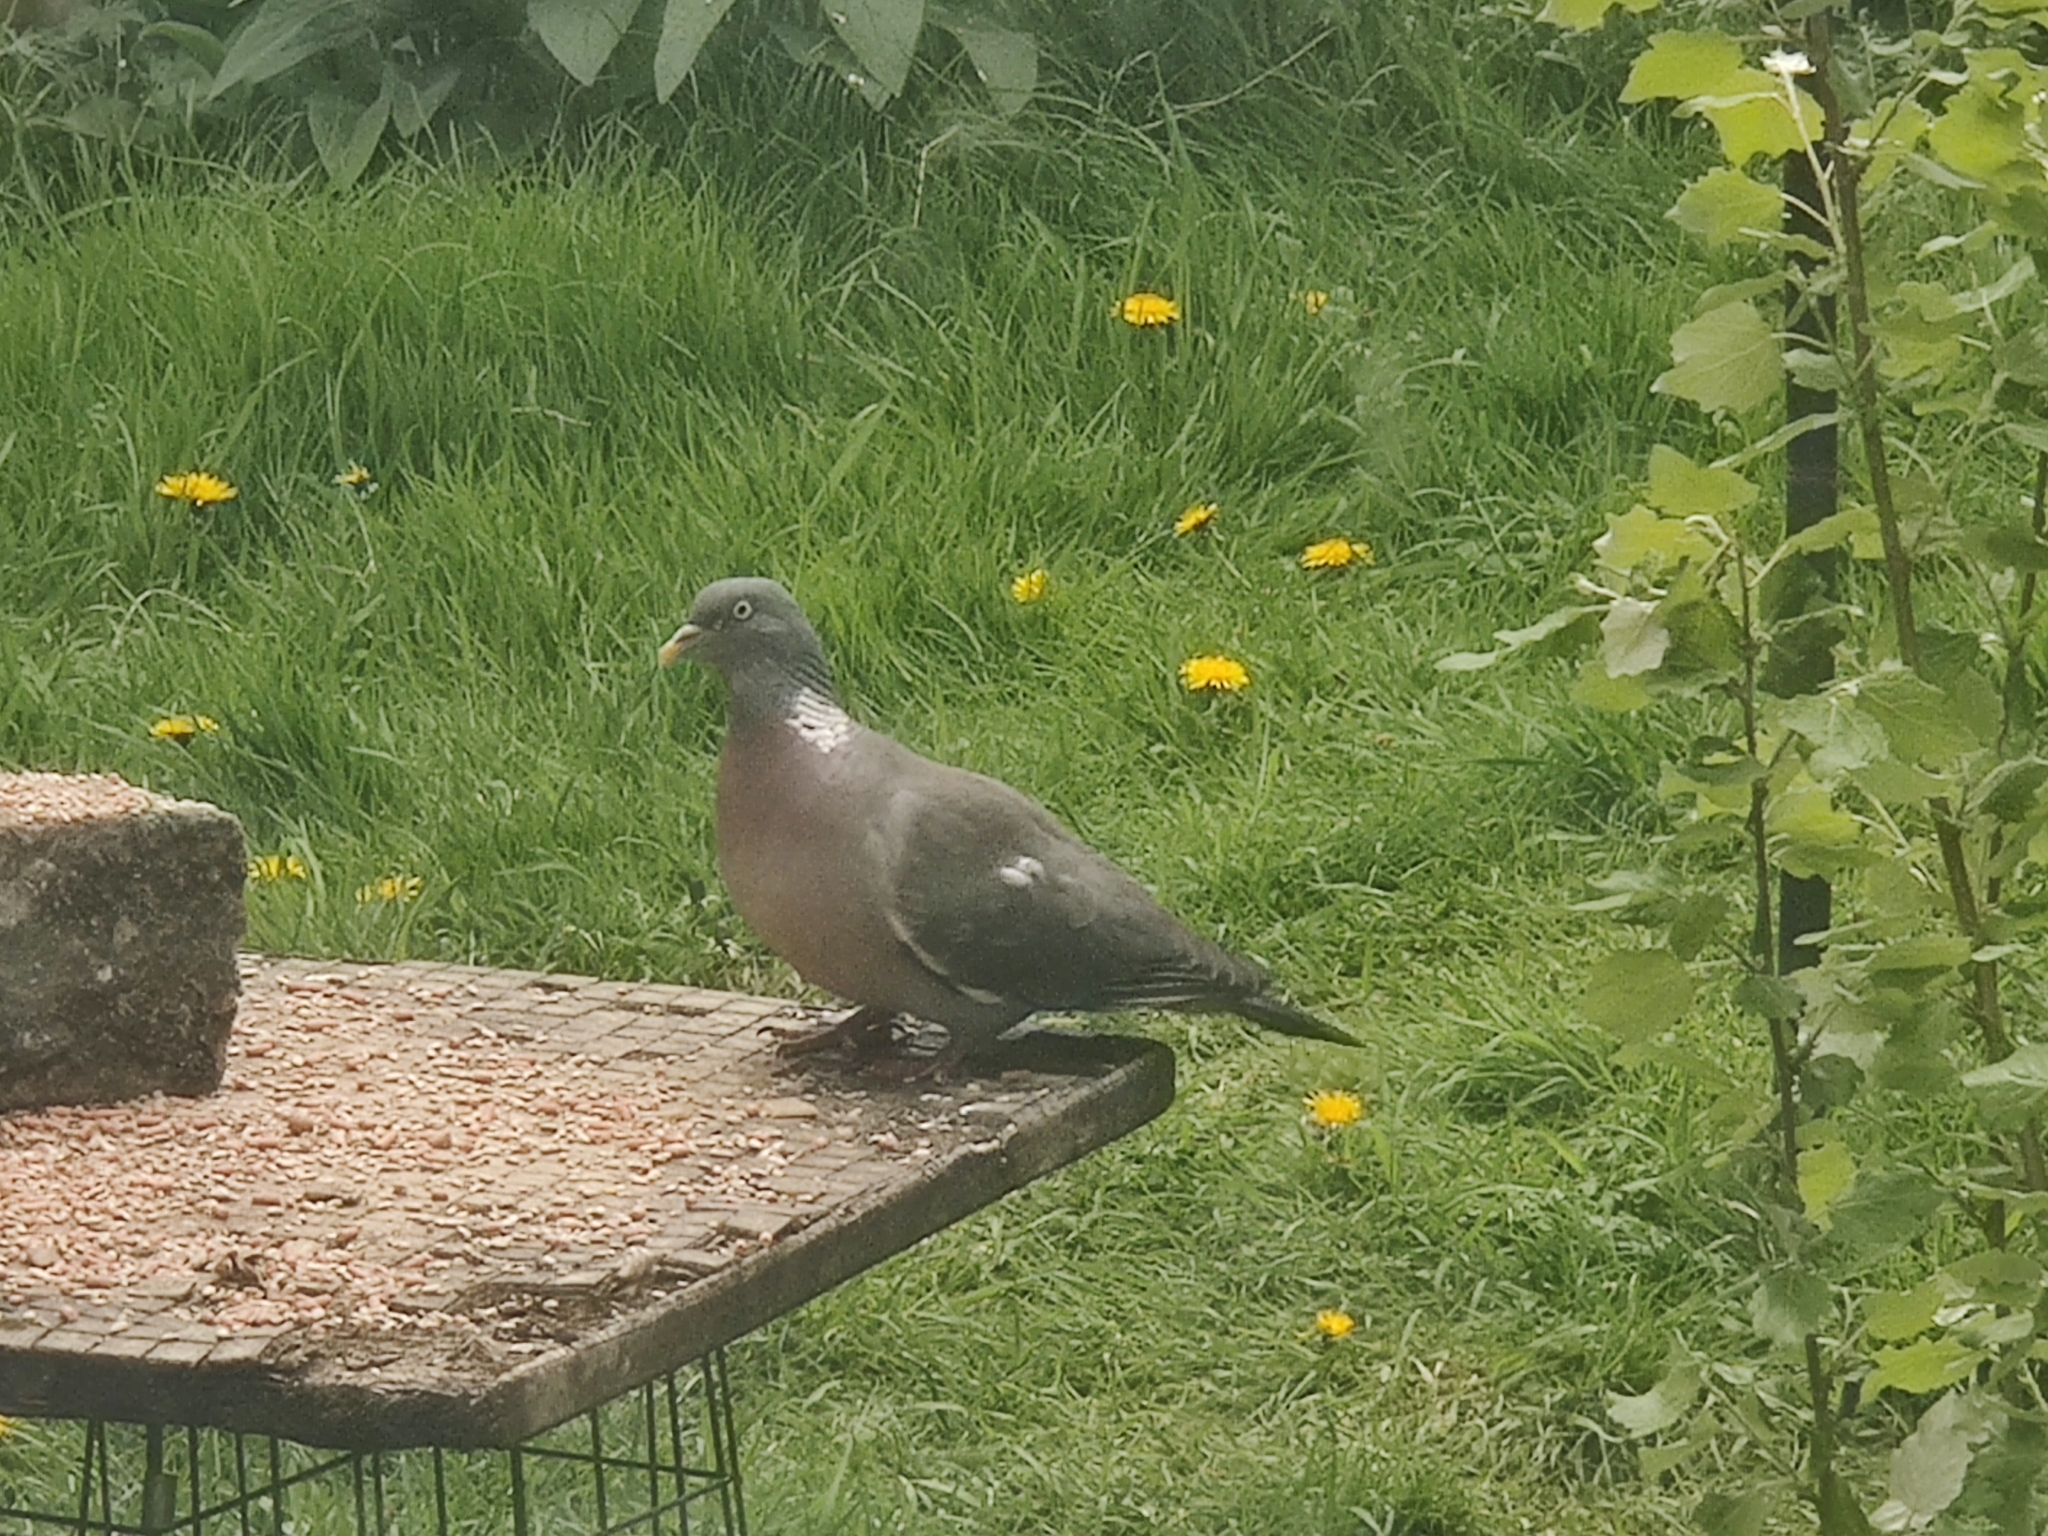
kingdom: Animalia
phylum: Chordata
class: Aves
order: Columbiformes
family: Columbidae
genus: Columba
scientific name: Columba palumbus
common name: Common wood pigeon
